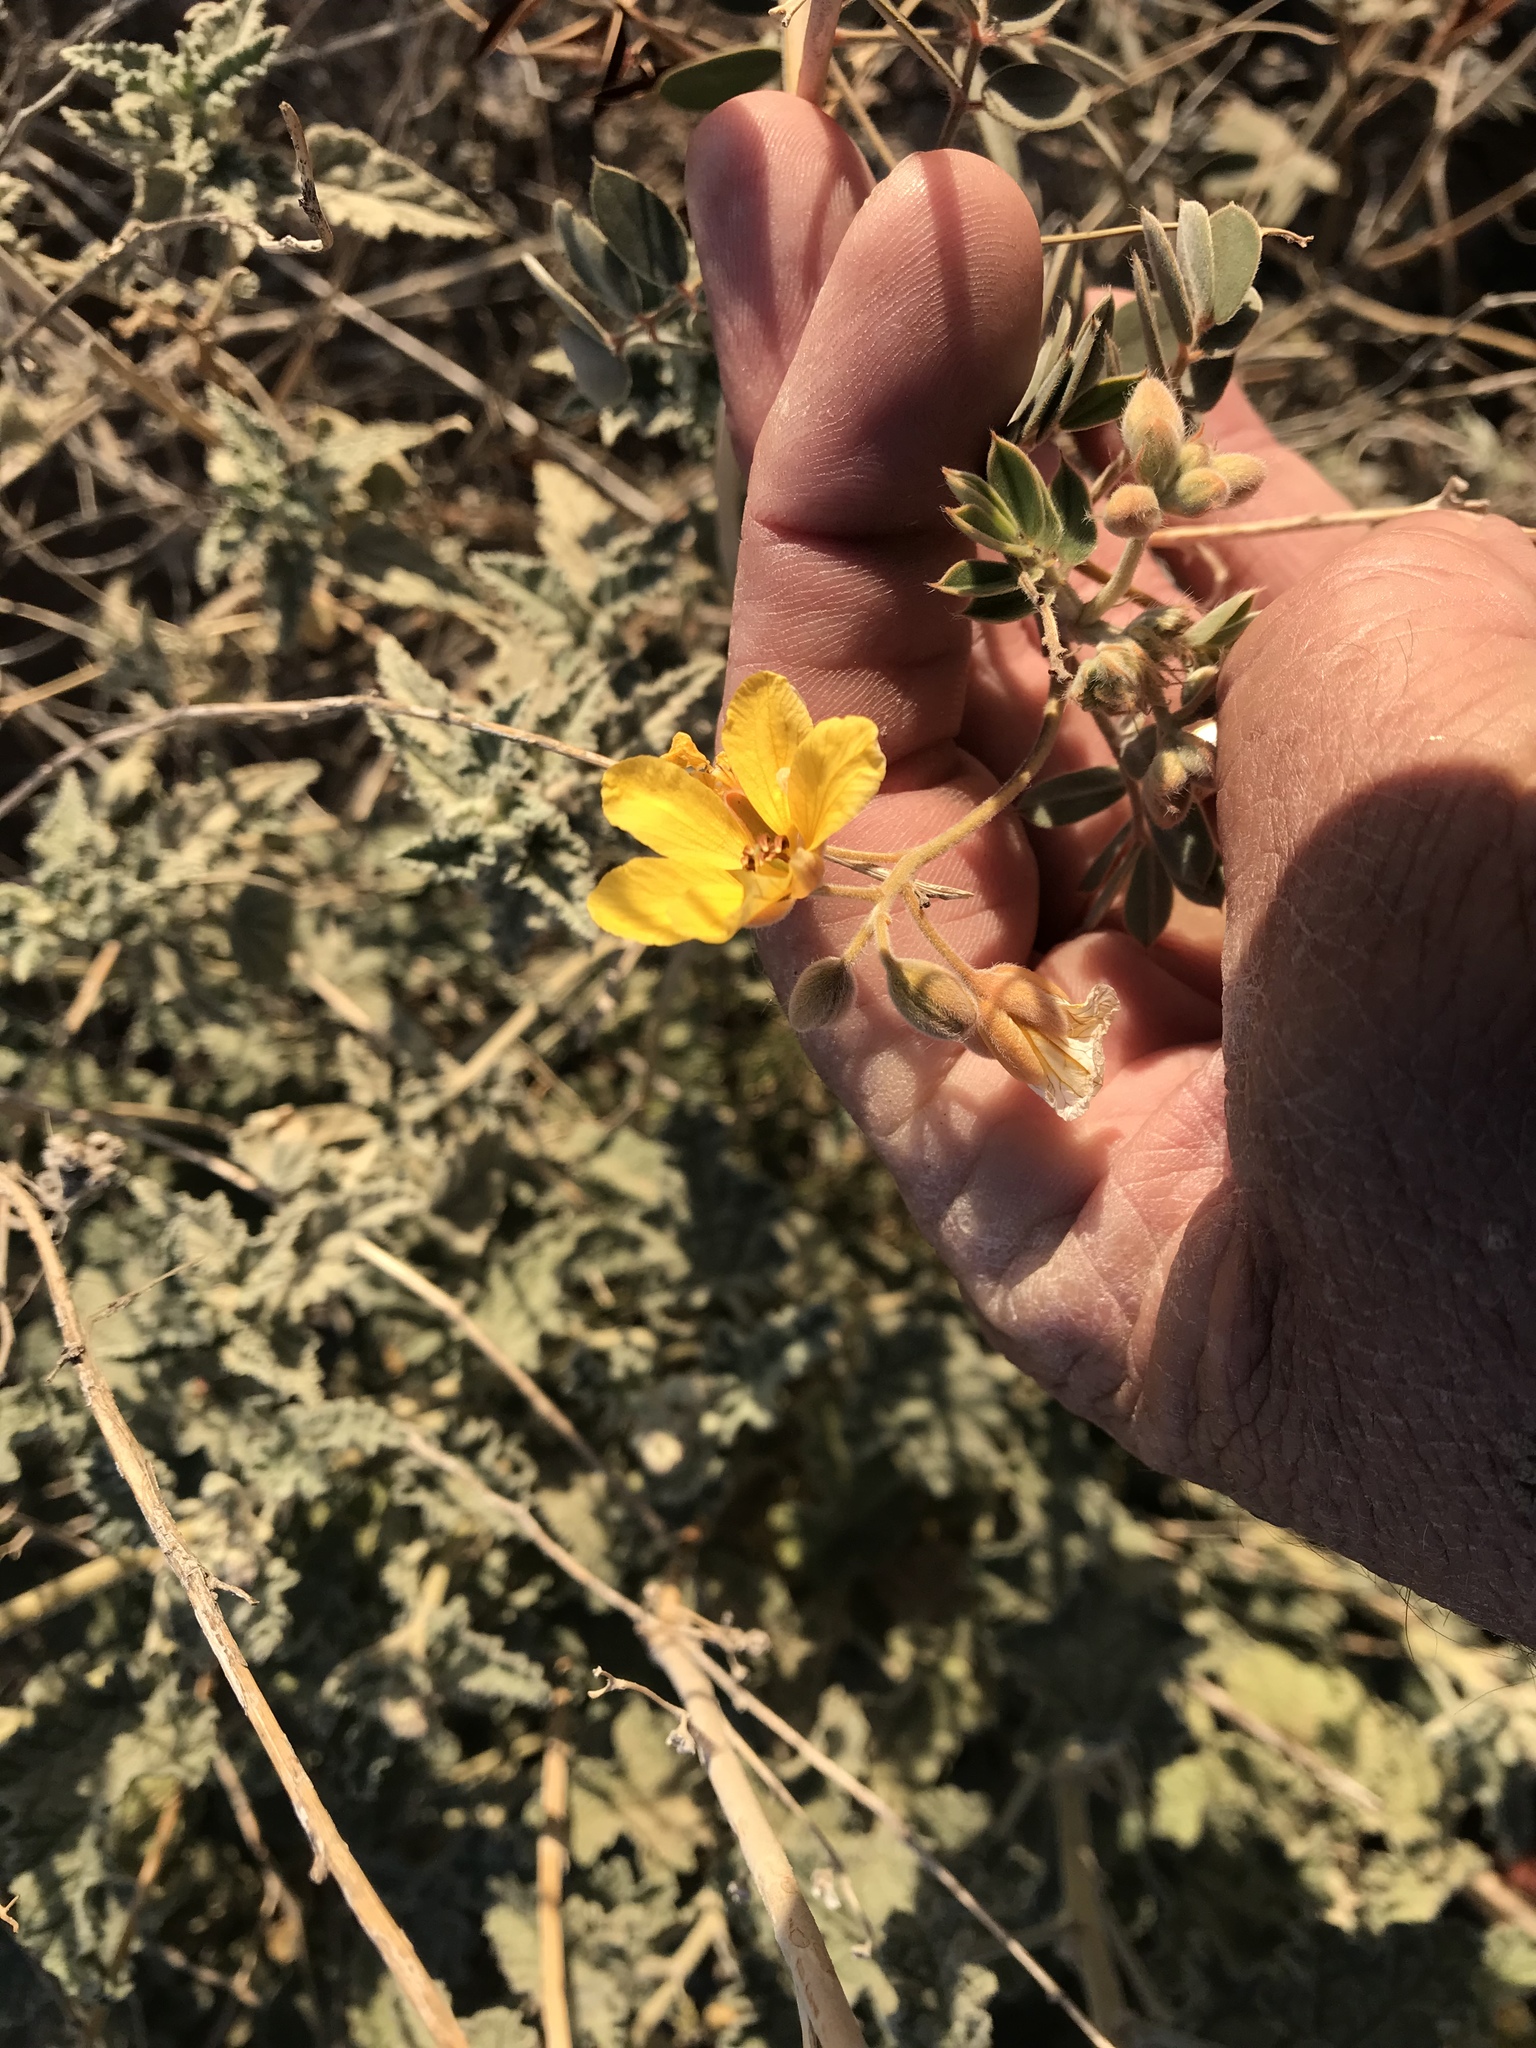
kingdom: Plantae
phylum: Tracheophyta
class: Magnoliopsida
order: Fabales
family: Fabaceae
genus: Senna
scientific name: Senna covesii
